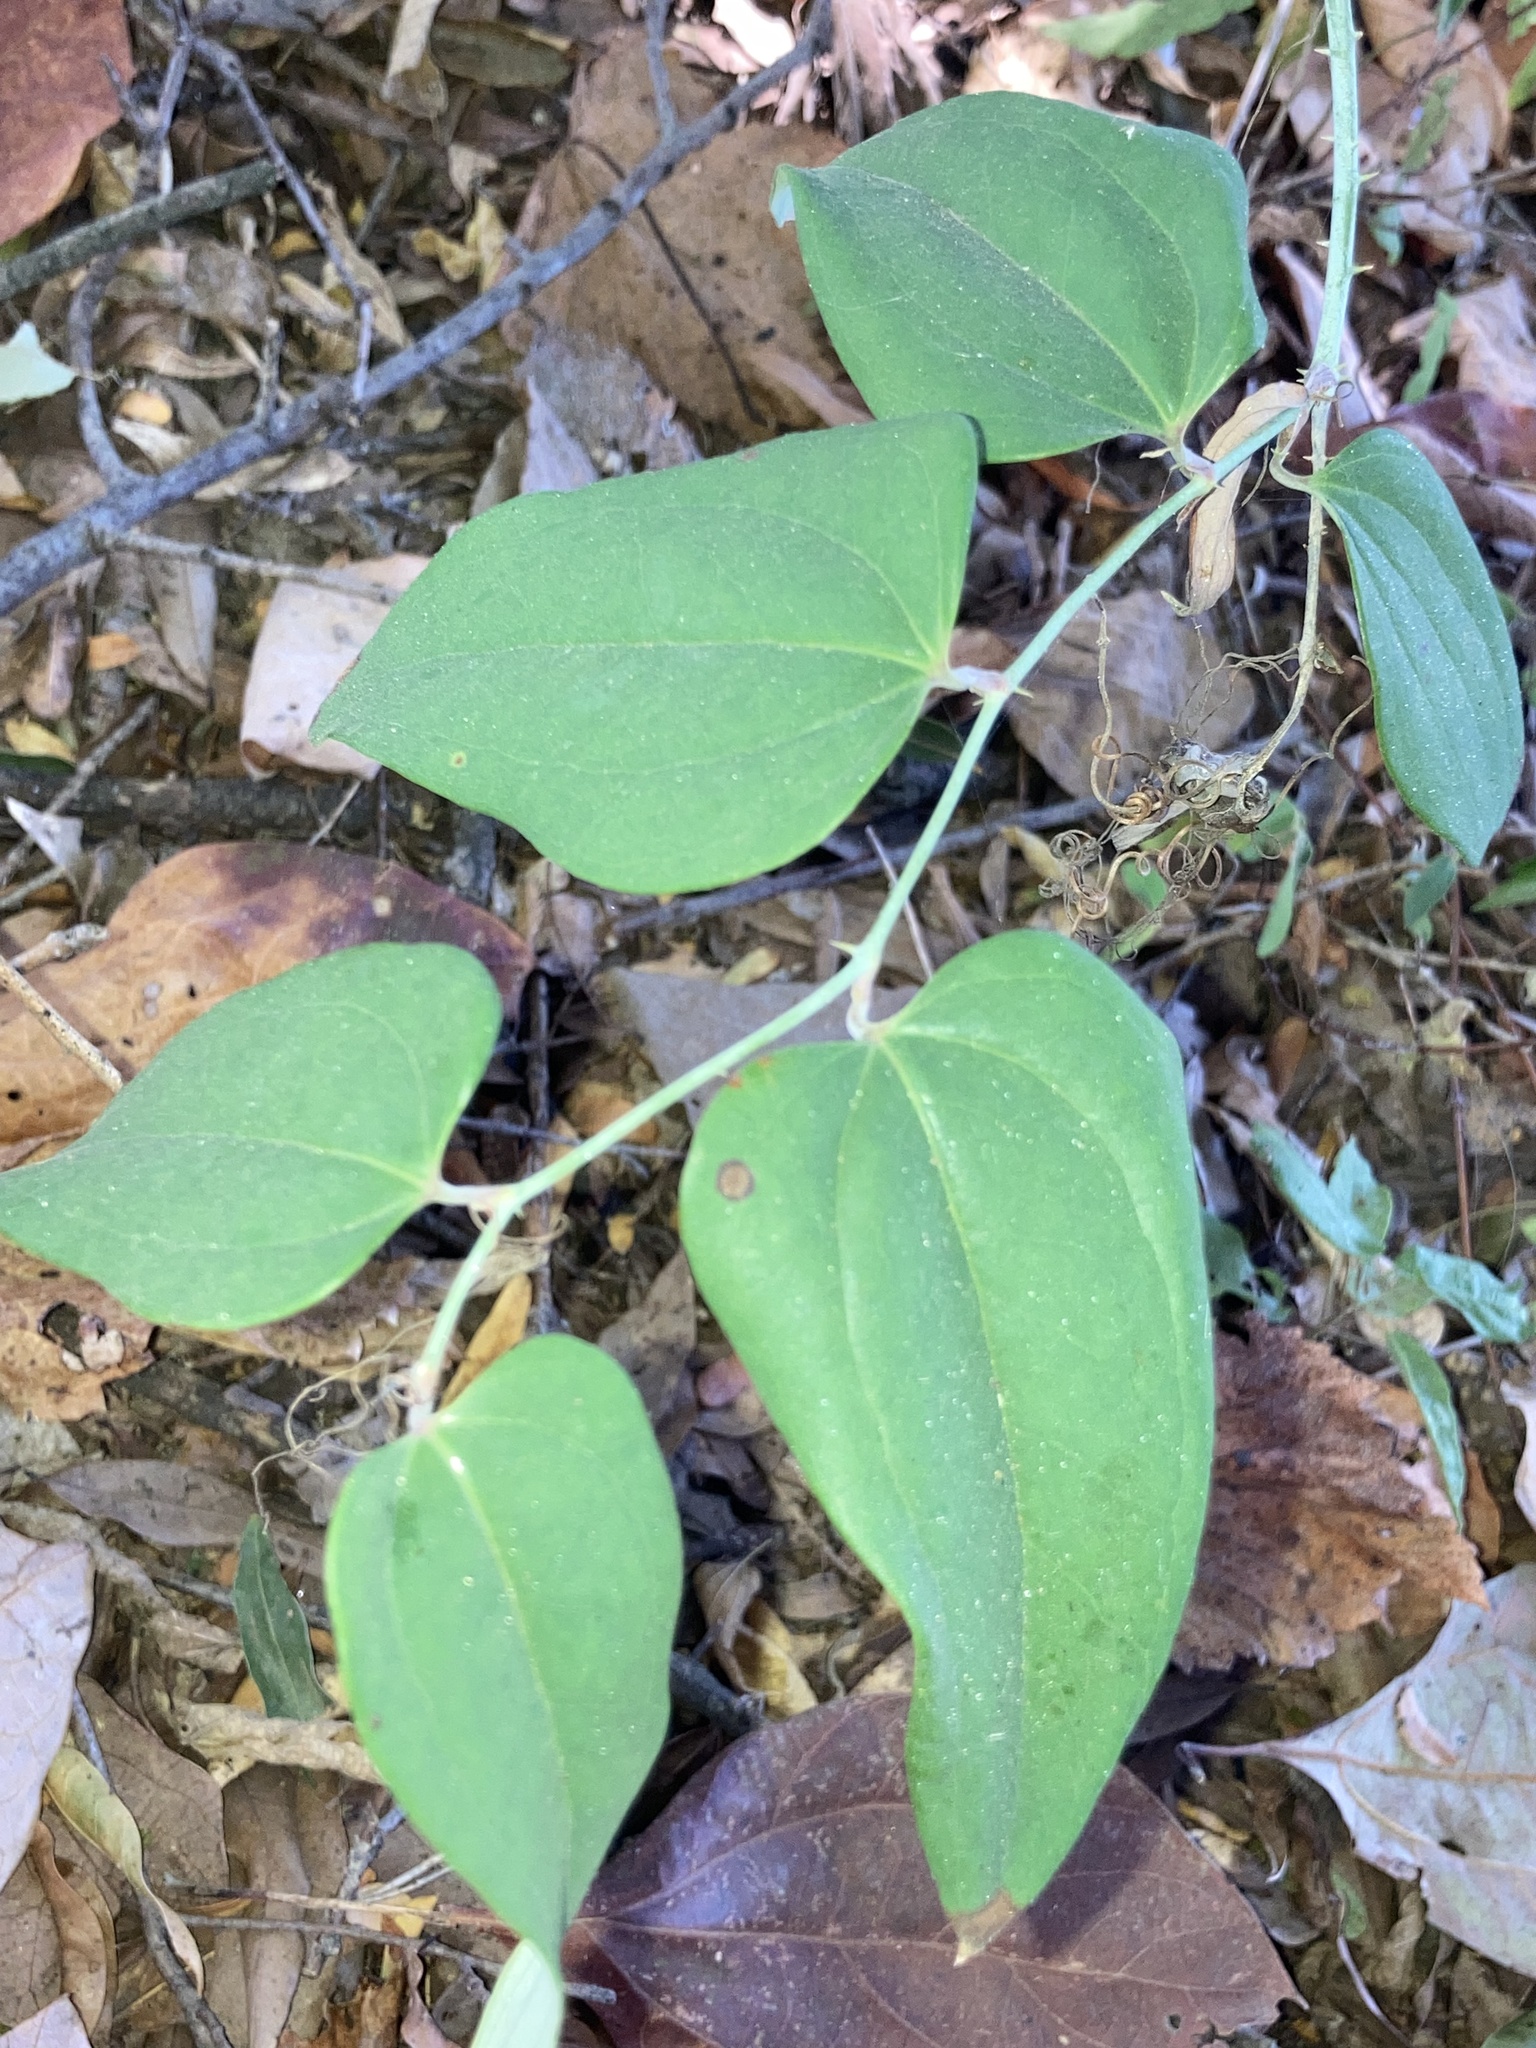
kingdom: Plantae
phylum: Tracheophyta
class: Liliopsida
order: Liliales
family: Smilacaceae
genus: Smilax
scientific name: Smilax glauca
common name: Cat greenbrier
